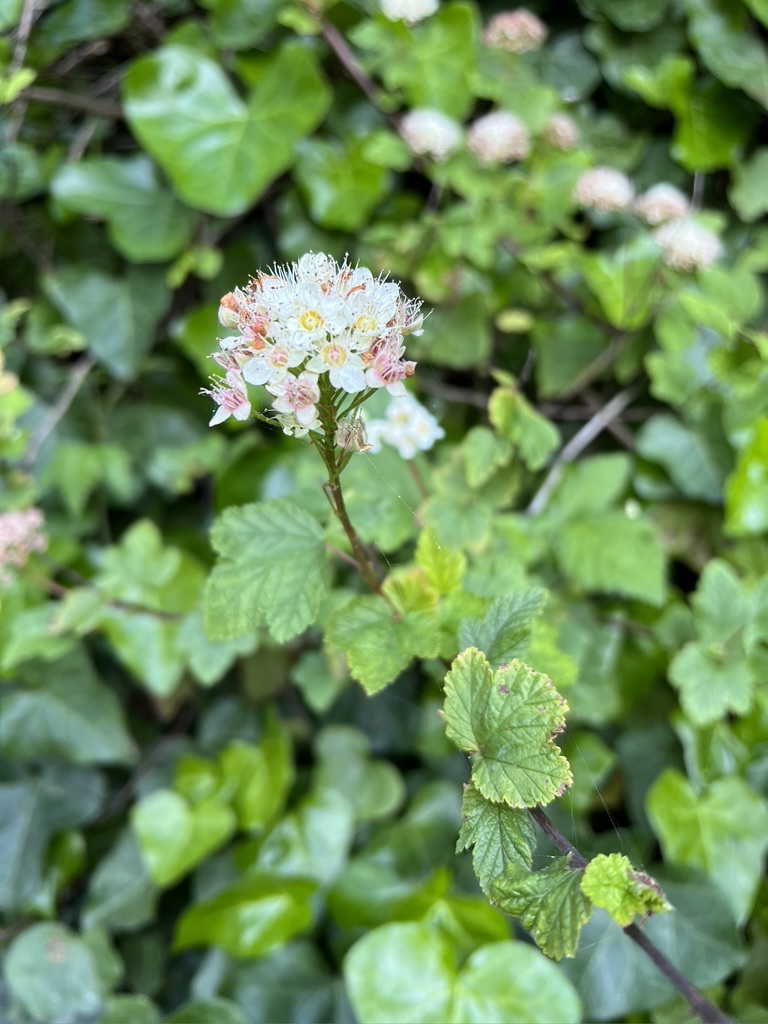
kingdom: Plantae
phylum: Tracheophyta
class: Magnoliopsida
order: Rosales
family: Rosaceae
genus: Physocarpus
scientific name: Physocarpus capitatus
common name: Pacific ninebark
